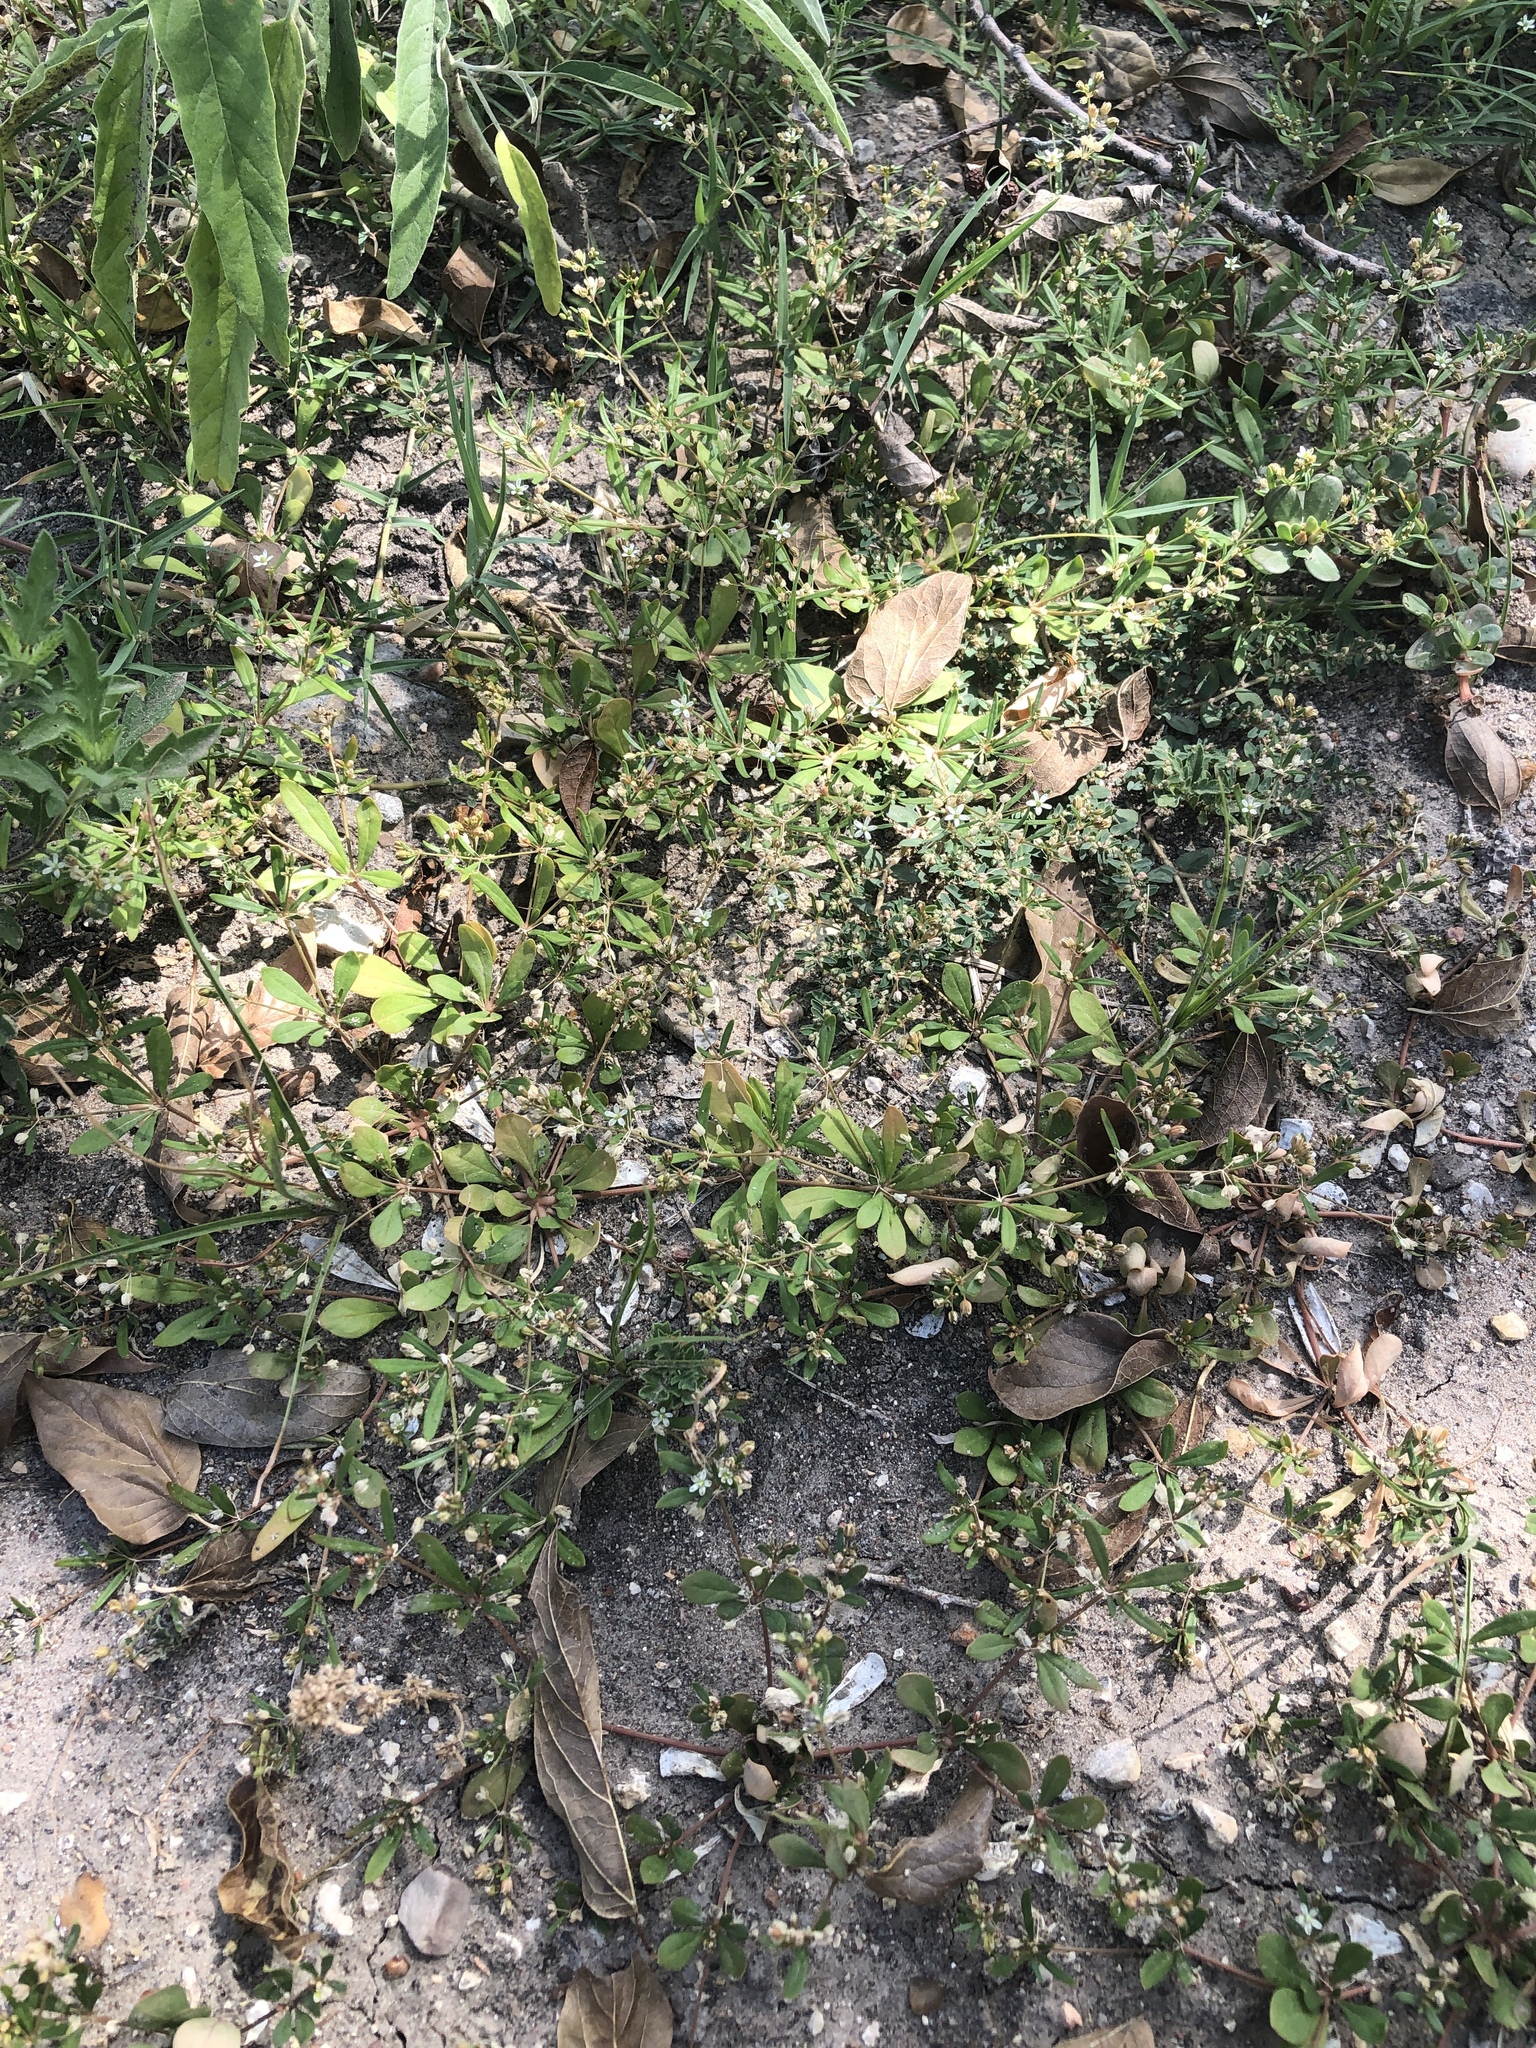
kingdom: Plantae
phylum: Tracheophyta
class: Magnoliopsida
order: Caryophyllales
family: Molluginaceae
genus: Mollugo
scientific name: Mollugo verticillata
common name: Green carpetweed
